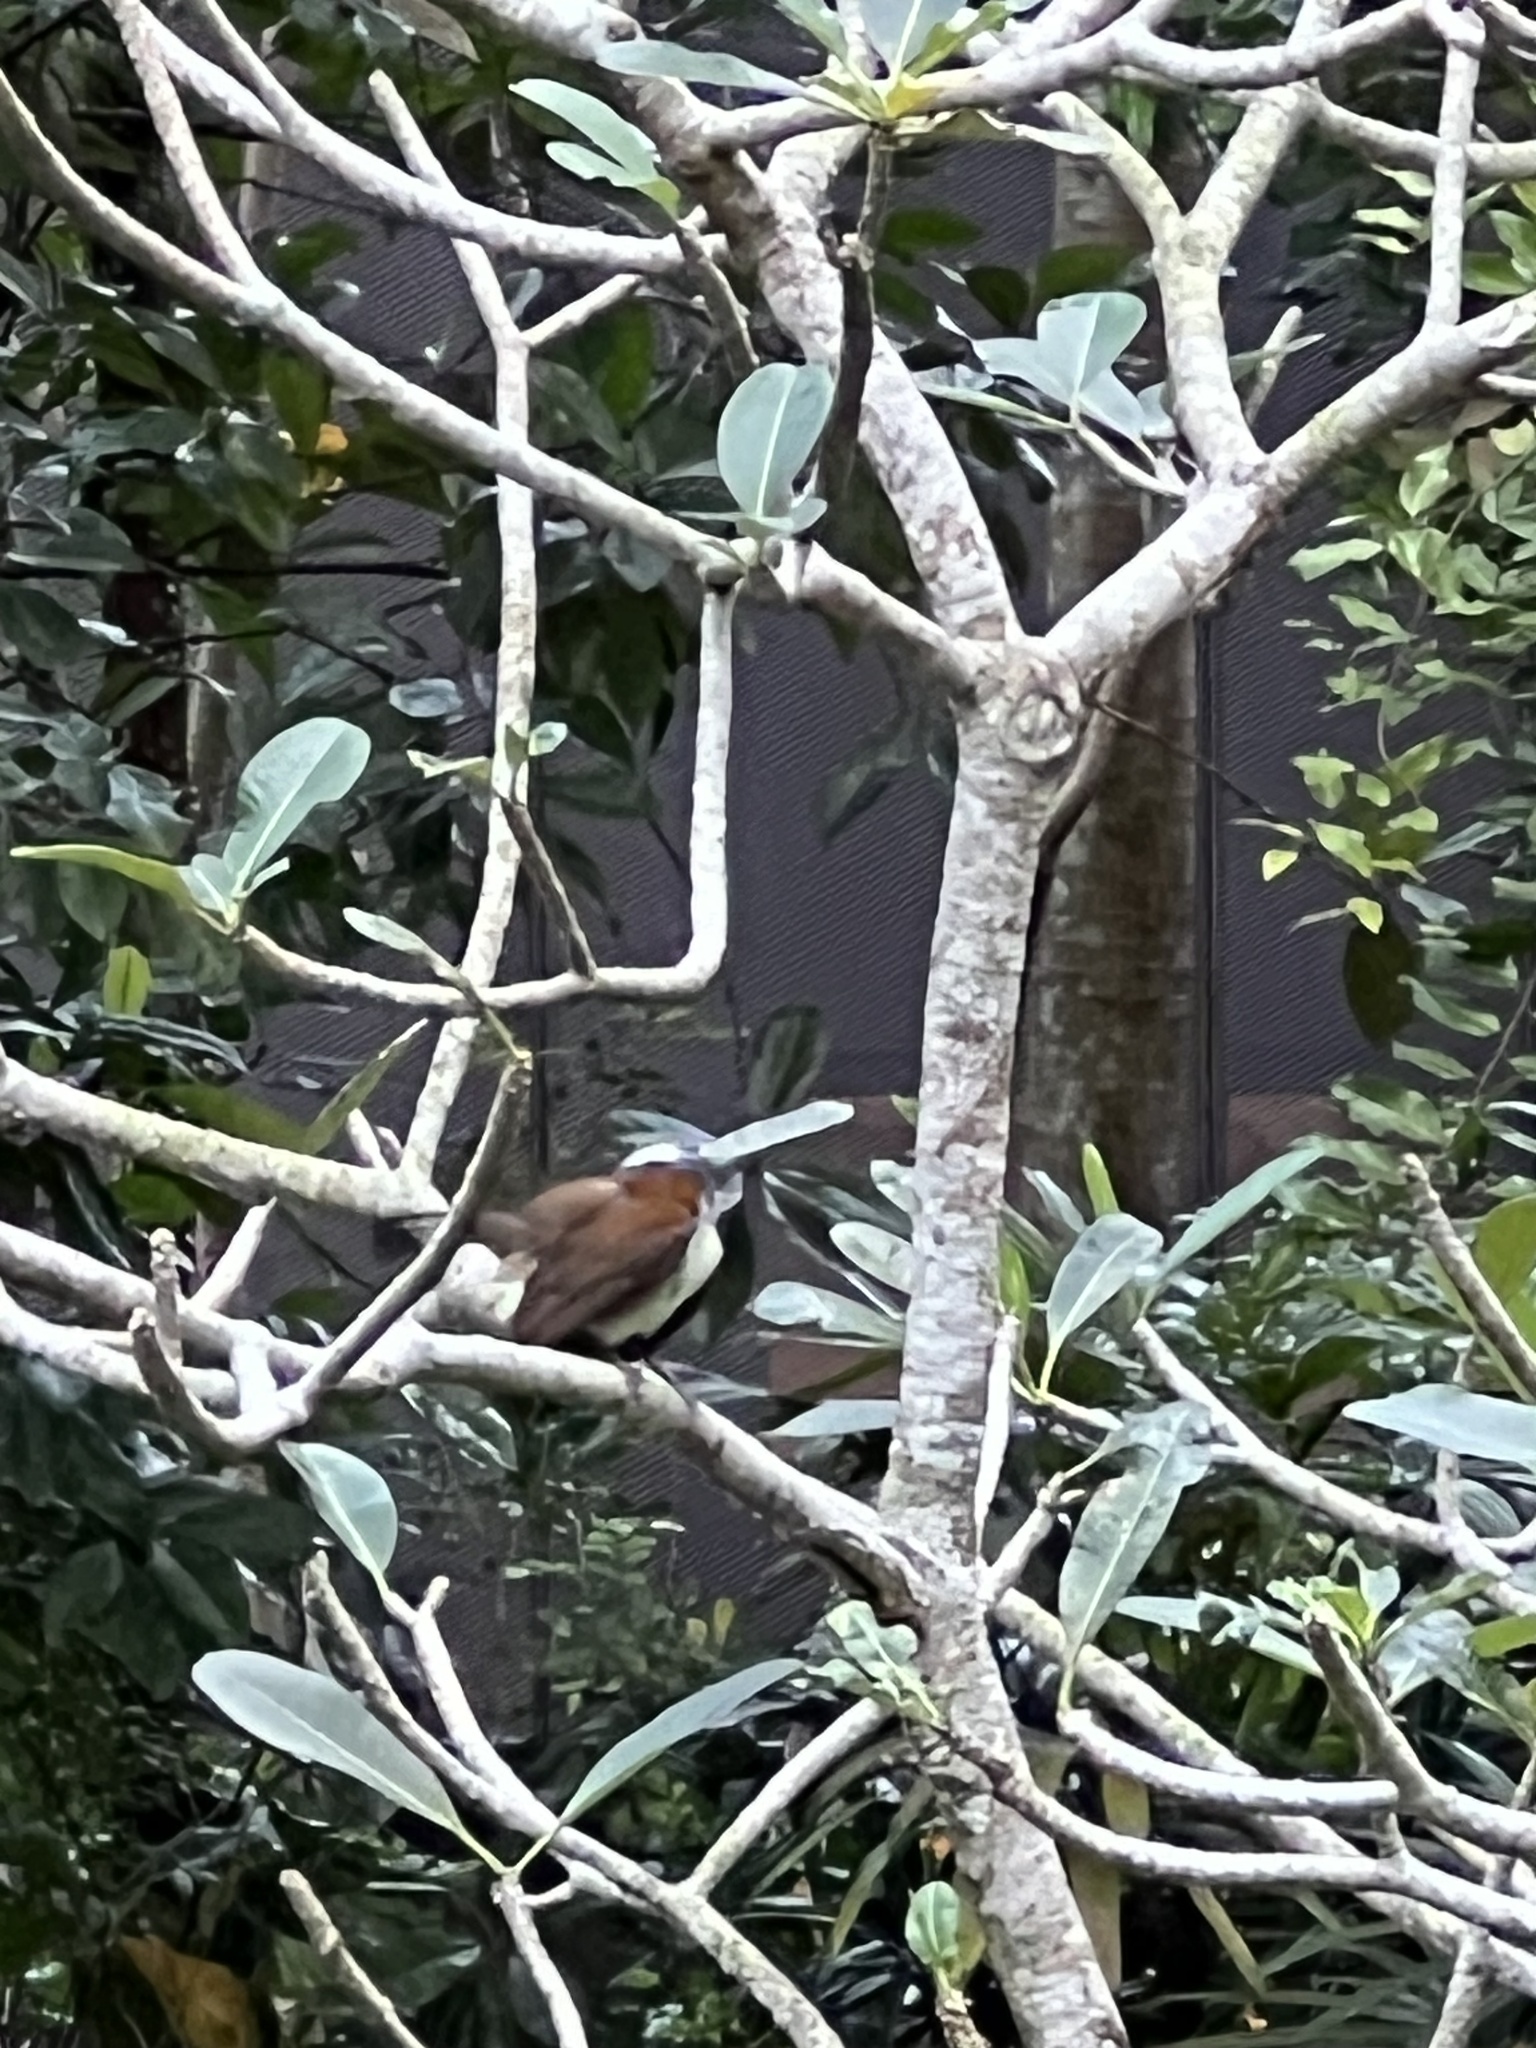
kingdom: Animalia
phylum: Chordata
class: Aves
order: Passeriformes
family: Leiothrichidae
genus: Garrulax
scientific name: Garrulax leucolophus
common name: White-crested laughingthrush
